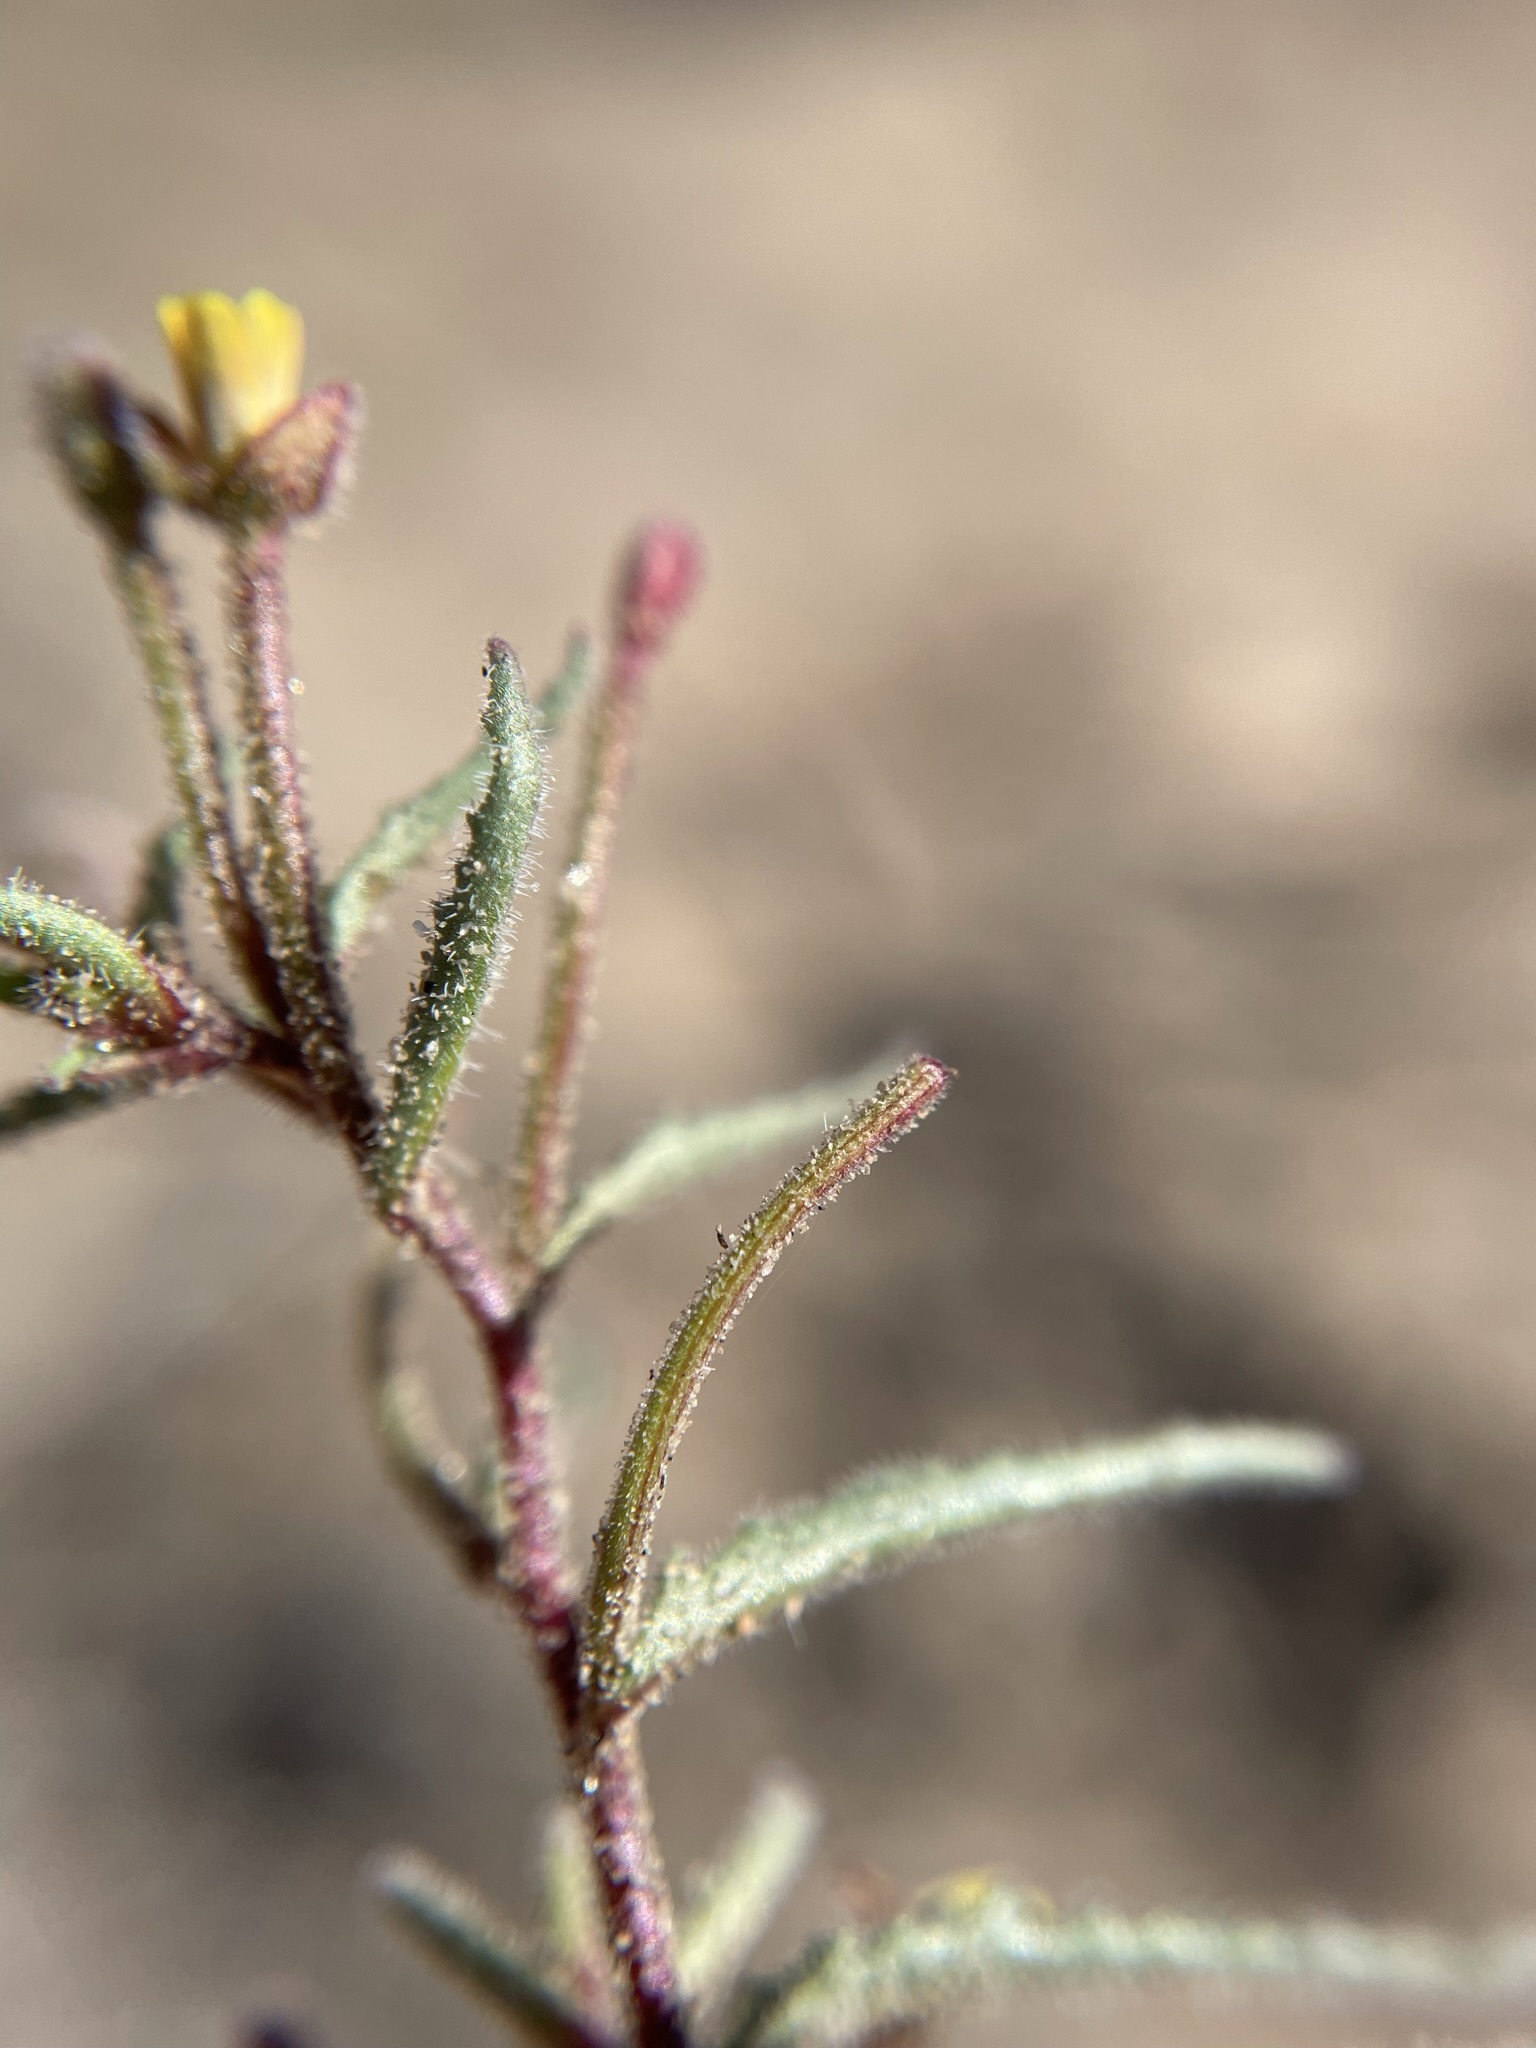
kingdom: Plantae
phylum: Tracheophyta
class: Magnoliopsida
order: Myrtales
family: Onagraceae
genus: Camissonia
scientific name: Camissonia pusilla
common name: Obscure camissonia
